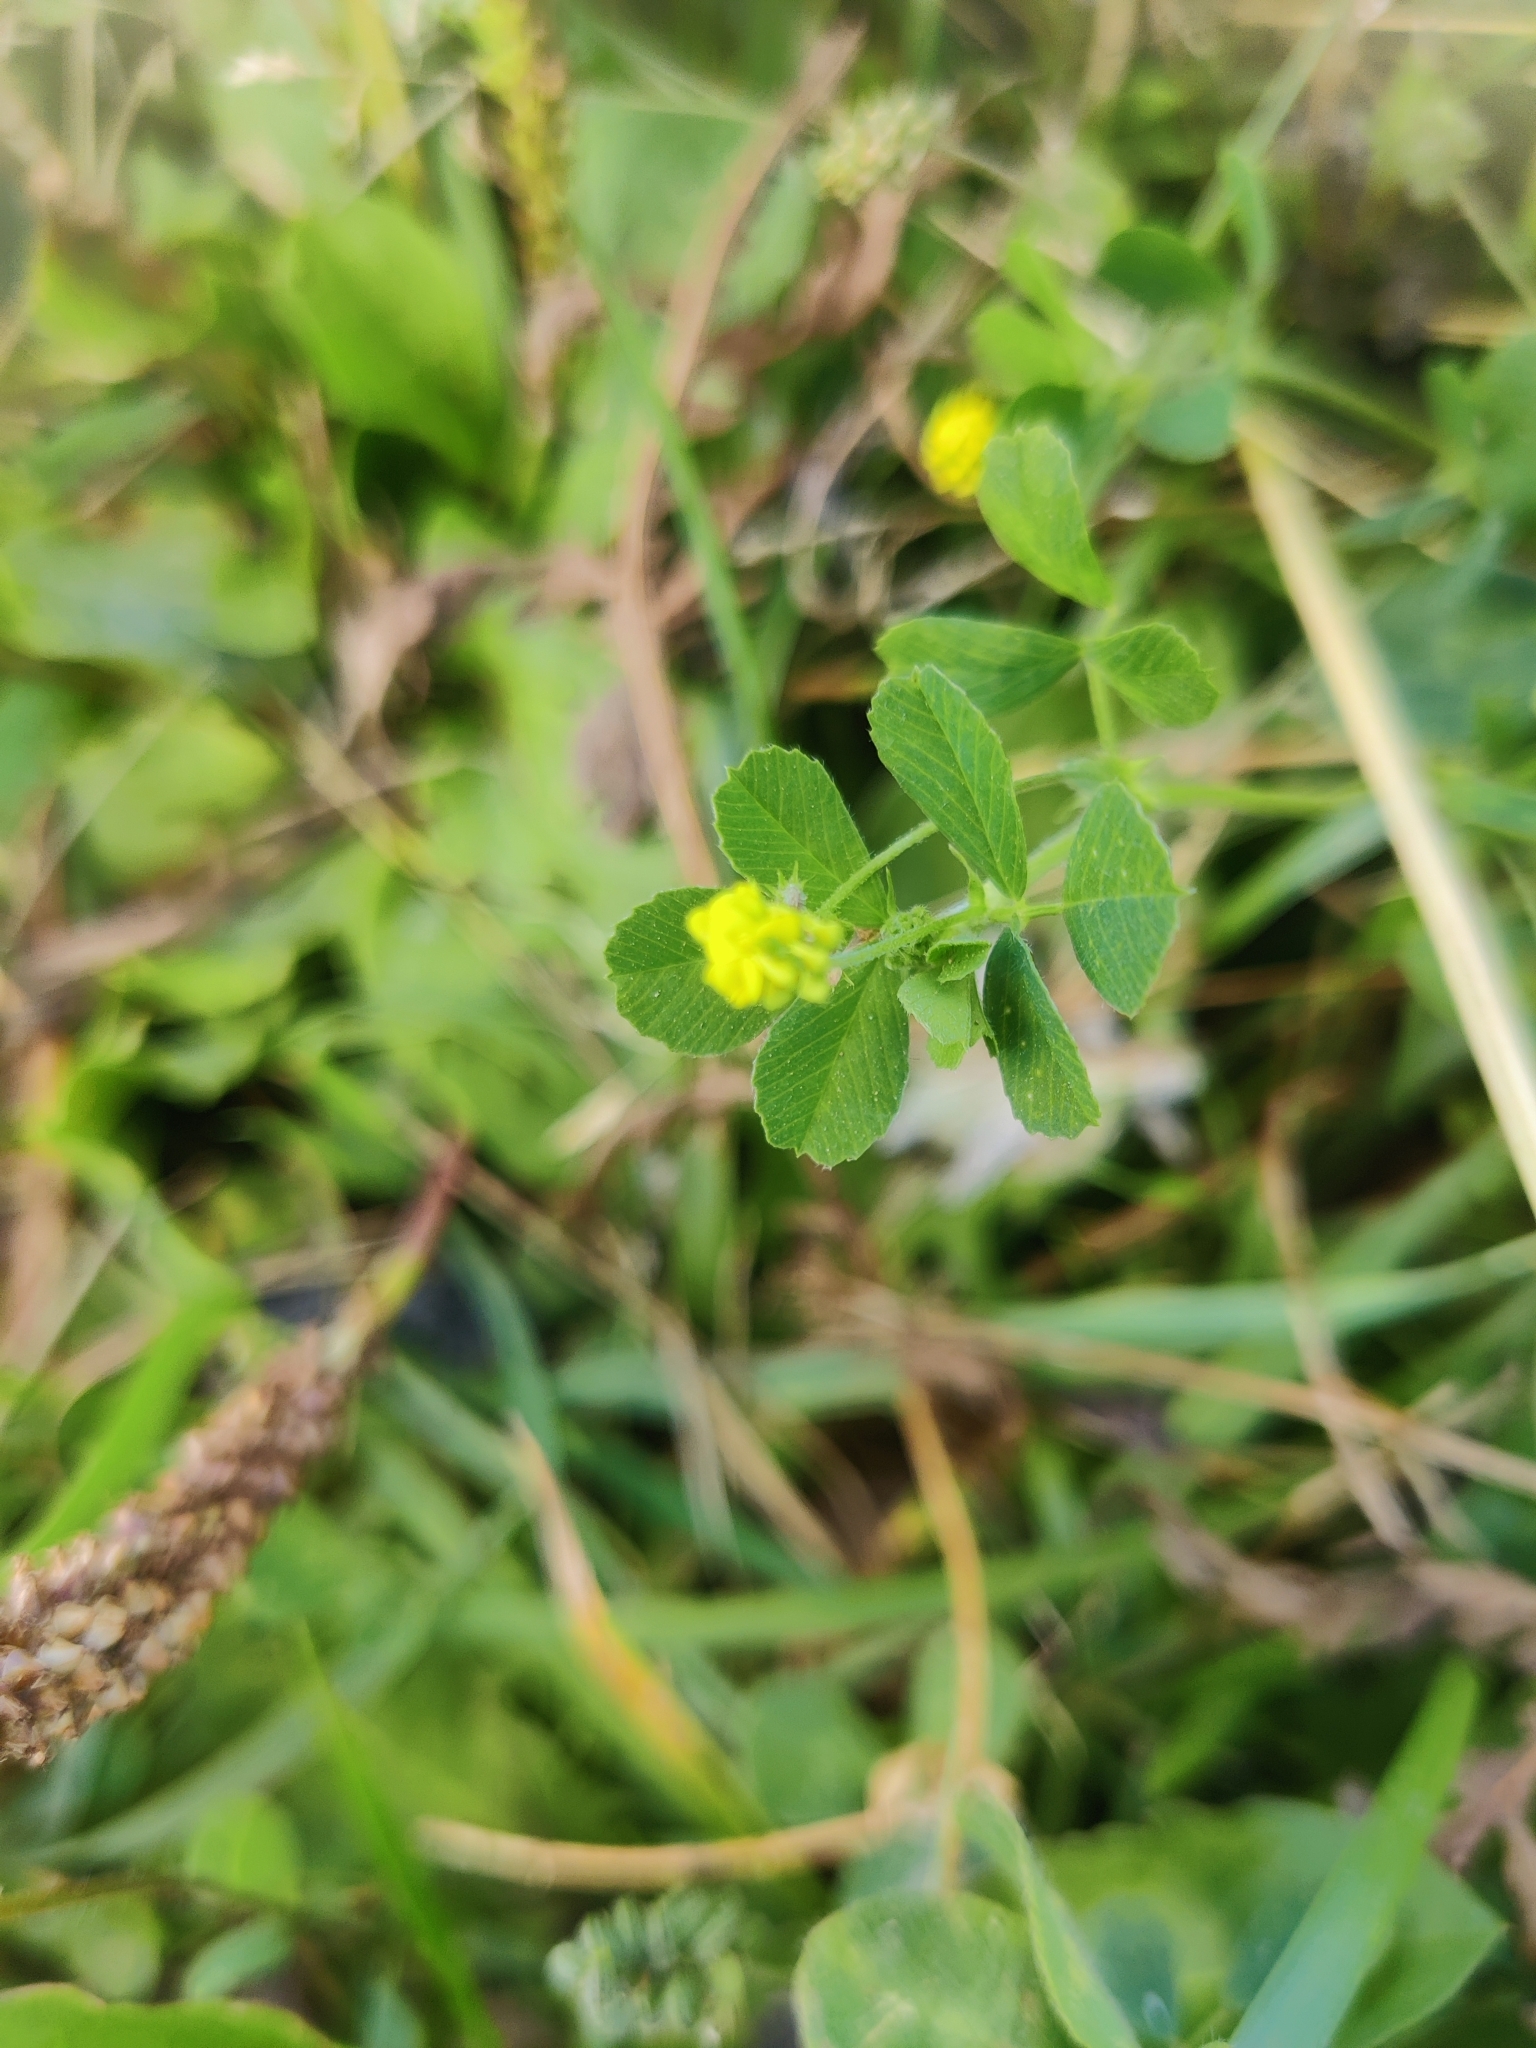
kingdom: Plantae
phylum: Tracheophyta
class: Magnoliopsida
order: Fabales
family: Fabaceae
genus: Medicago
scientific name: Medicago lupulina
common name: Black medick
